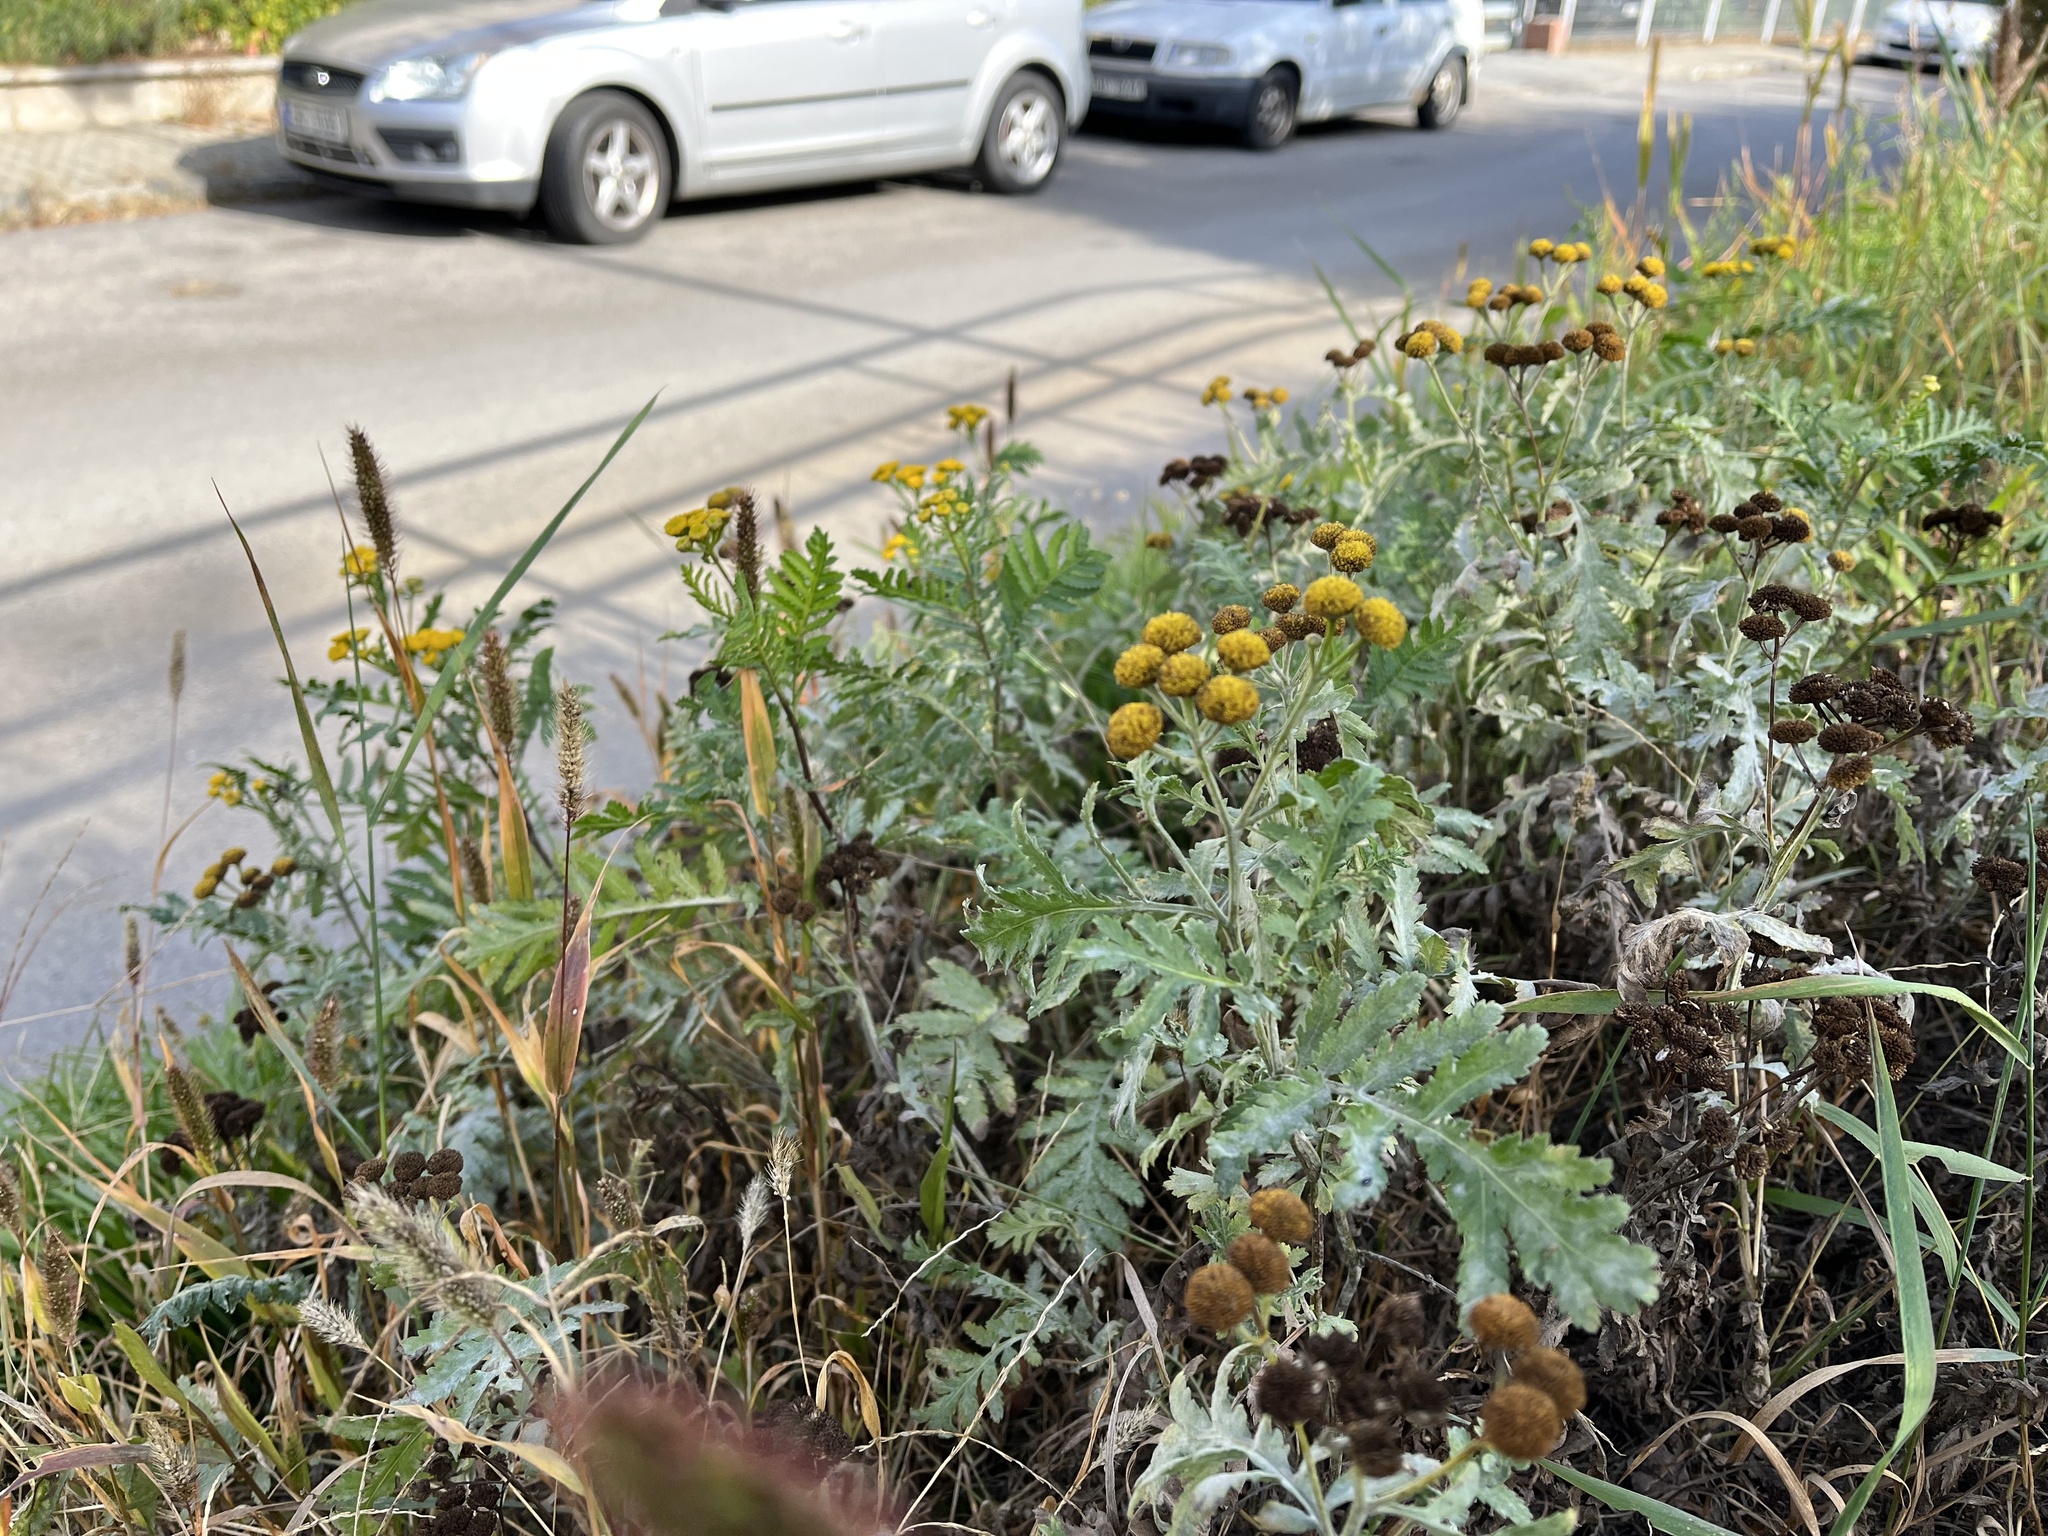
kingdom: Plantae
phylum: Tracheophyta
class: Magnoliopsida
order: Asterales
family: Asteraceae
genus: Tanacetum
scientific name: Tanacetum vulgare
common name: Common tansy
